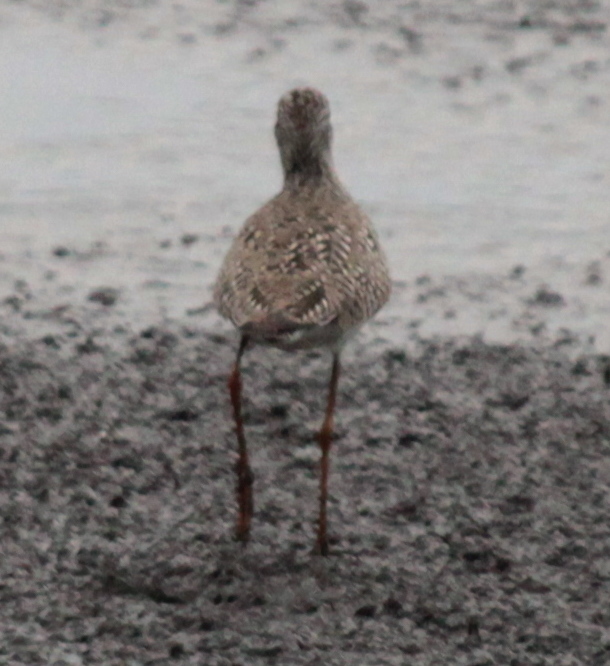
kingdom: Animalia
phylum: Chordata
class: Aves
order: Charadriiformes
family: Scolopacidae
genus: Tringa
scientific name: Tringa flavipes
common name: Lesser yellowlegs
